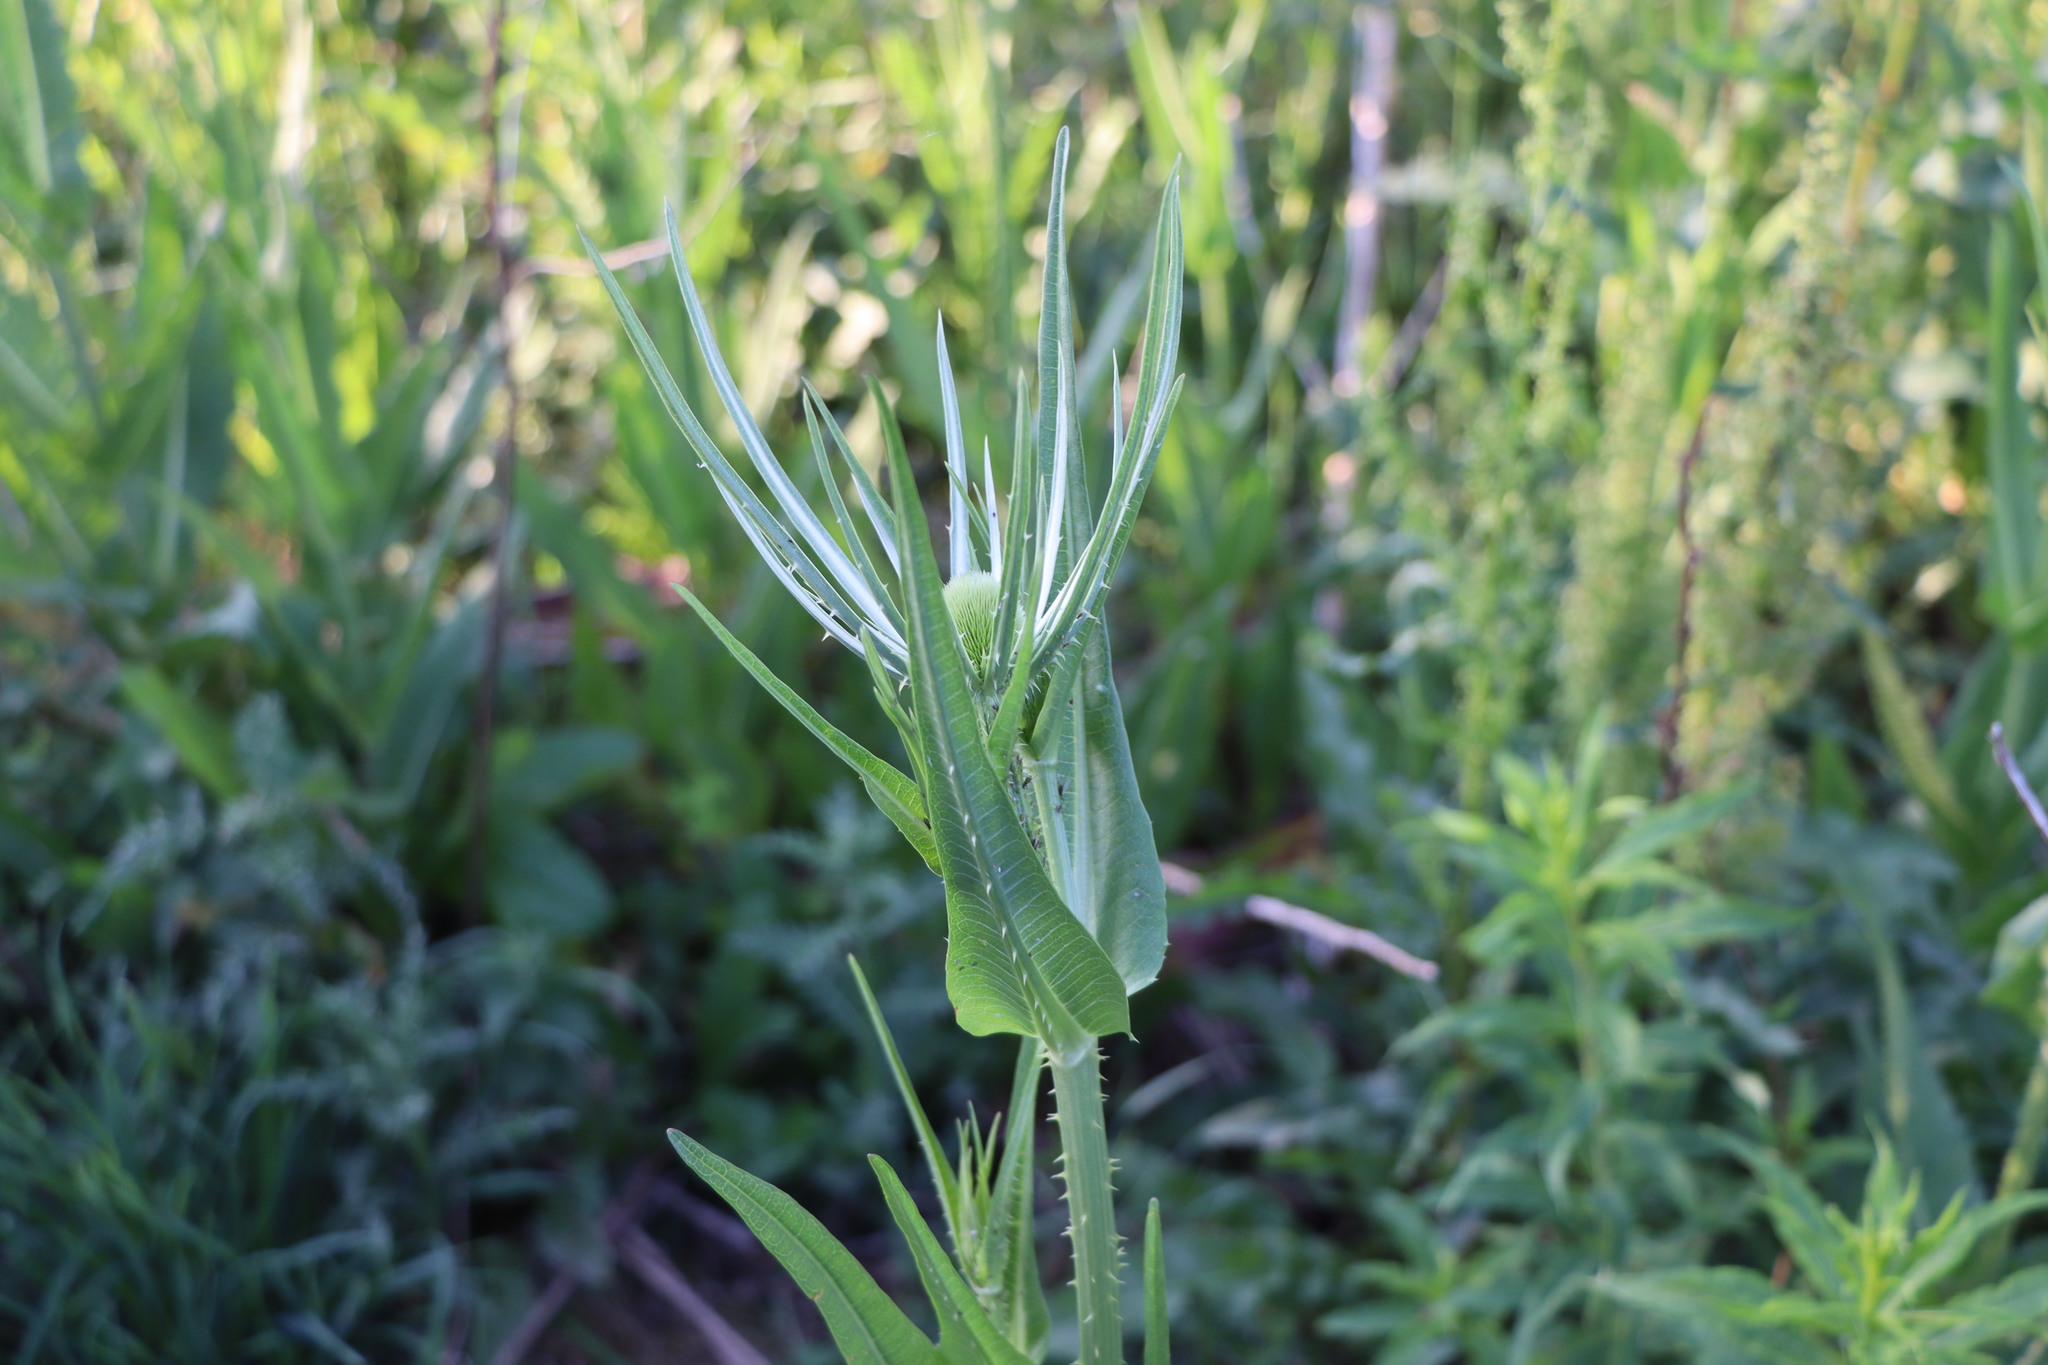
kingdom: Plantae
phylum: Tracheophyta
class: Magnoliopsida
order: Dipsacales
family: Caprifoliaceae
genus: Dipsacus
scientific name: Dipsacus fullonum
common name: Teasel
